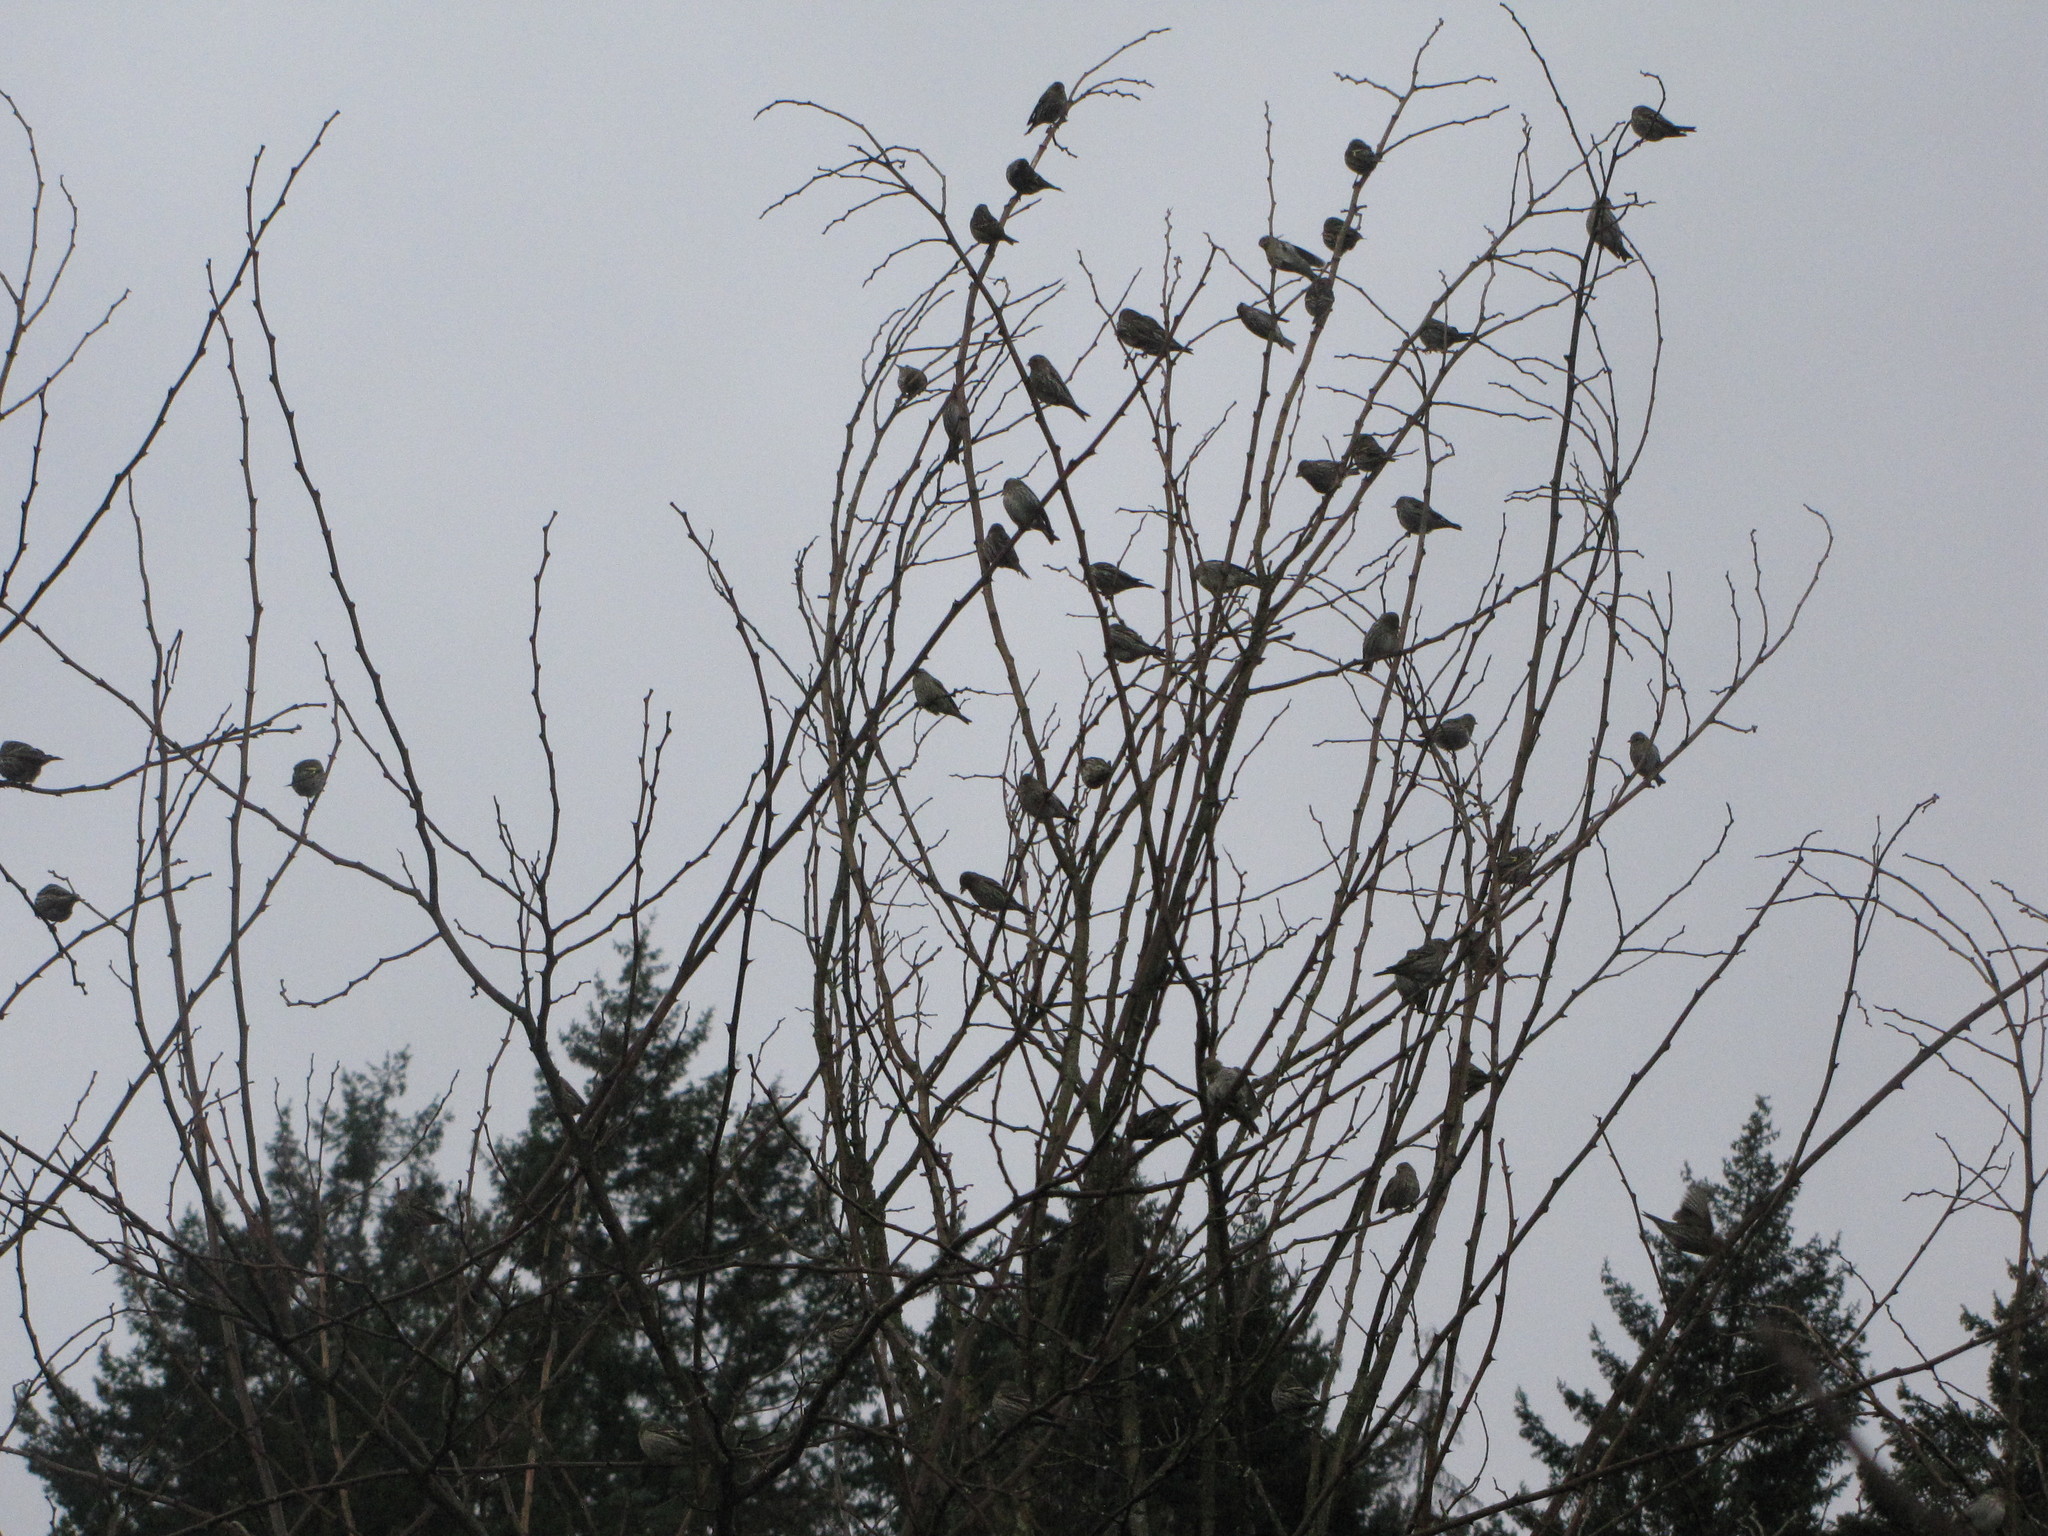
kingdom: Animalia
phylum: Chordata
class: Aves
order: Passeriformes
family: Fringillidae
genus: Spinus
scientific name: Spinus pinus
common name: Pine siskin
